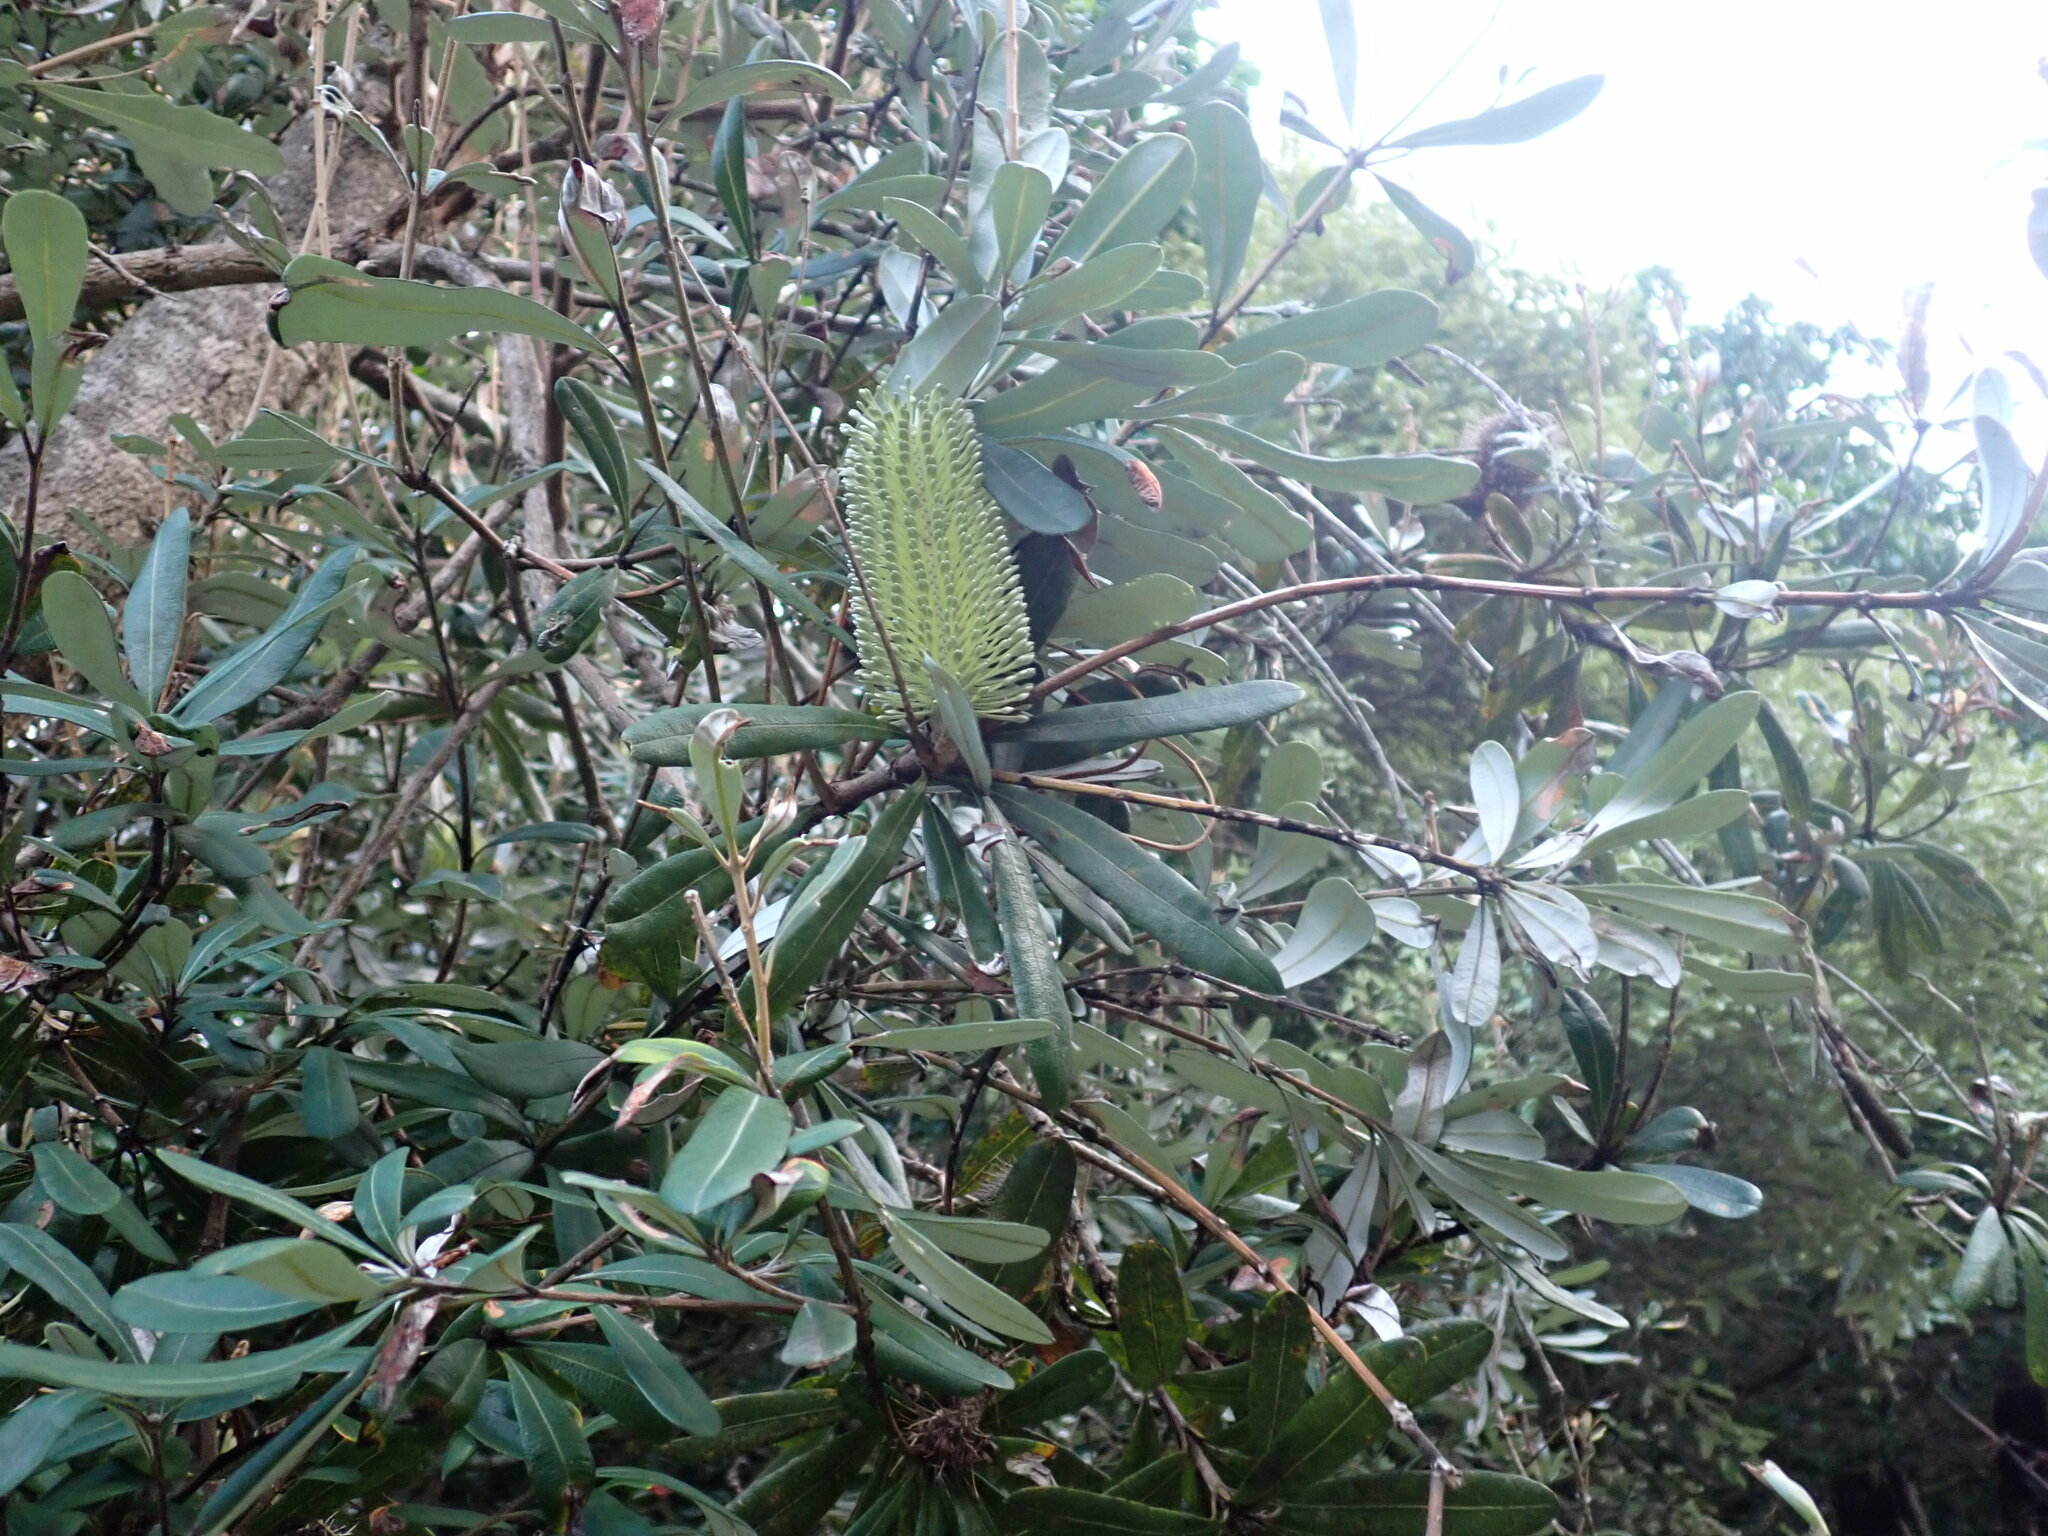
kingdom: Plantae
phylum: Tracheophyta
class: Magnoliopsida
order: Proteales
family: Proteaceae
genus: Banksia
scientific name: Banksia integrifolia
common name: White-honeysuckle
